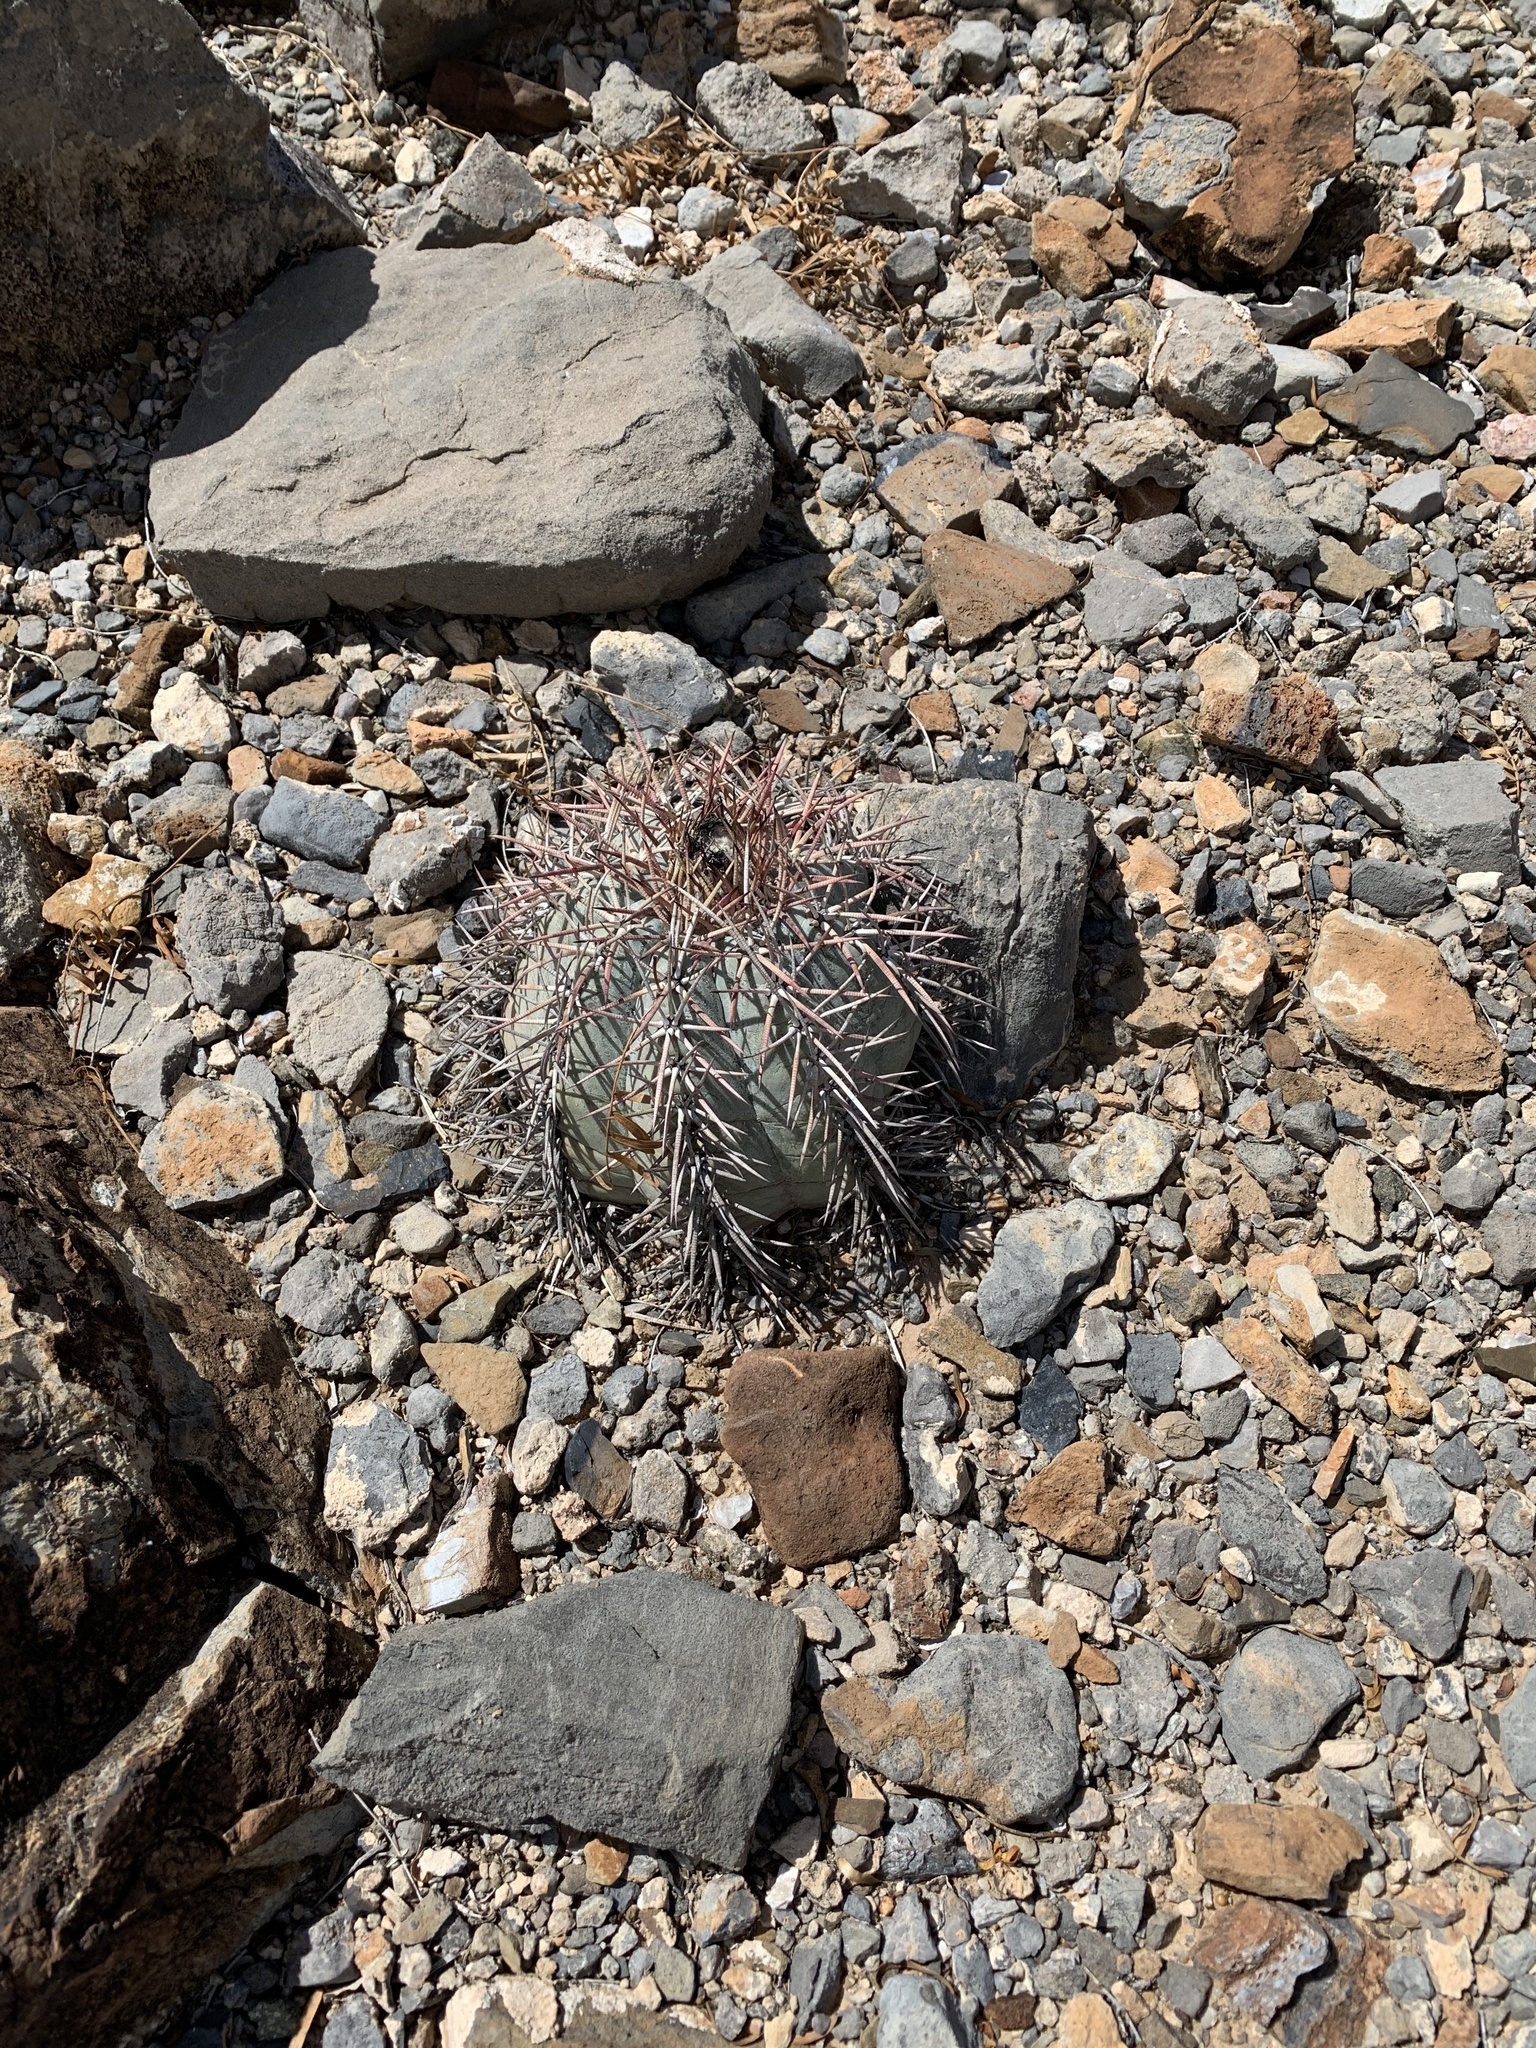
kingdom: Plantae
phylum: Tracheophyta
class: Magnoliopsida
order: Caryophyllales
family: Cactaceae
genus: Echinocactus
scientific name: Echinocactus horizonthalonius
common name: Devilshead
